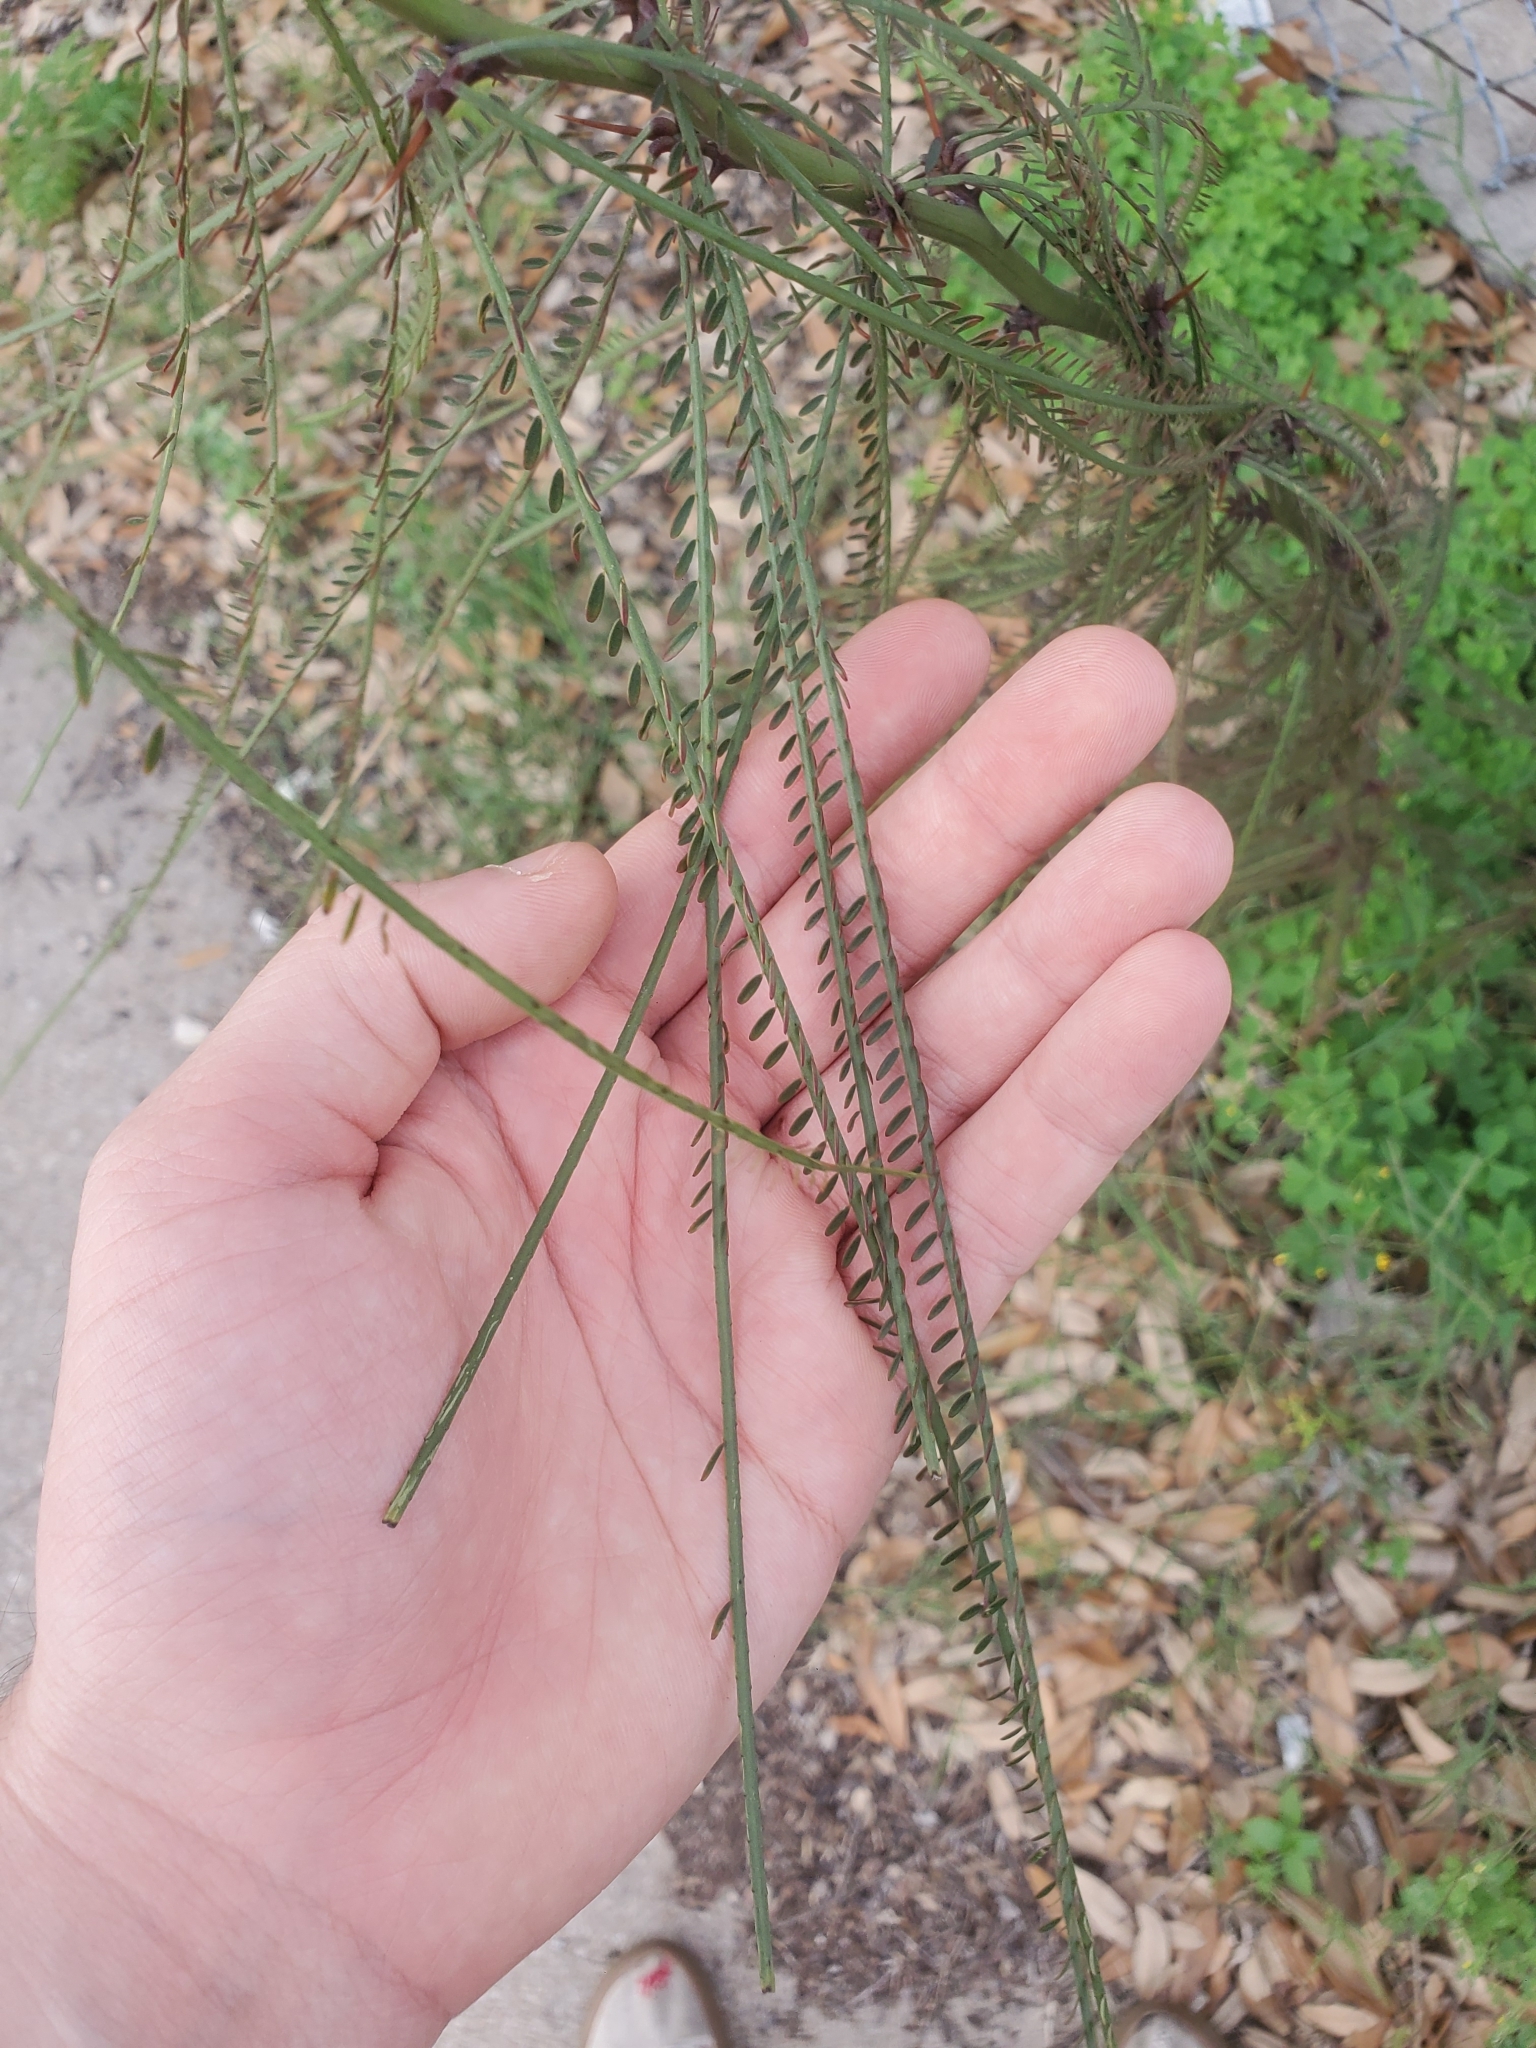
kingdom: Plantae
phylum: Tracheophyta
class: Magnoliopsida
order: Fabales
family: Fabaceae
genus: Parkinsonia
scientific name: Parkinsonia aculeata
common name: Jerusalem thorn
